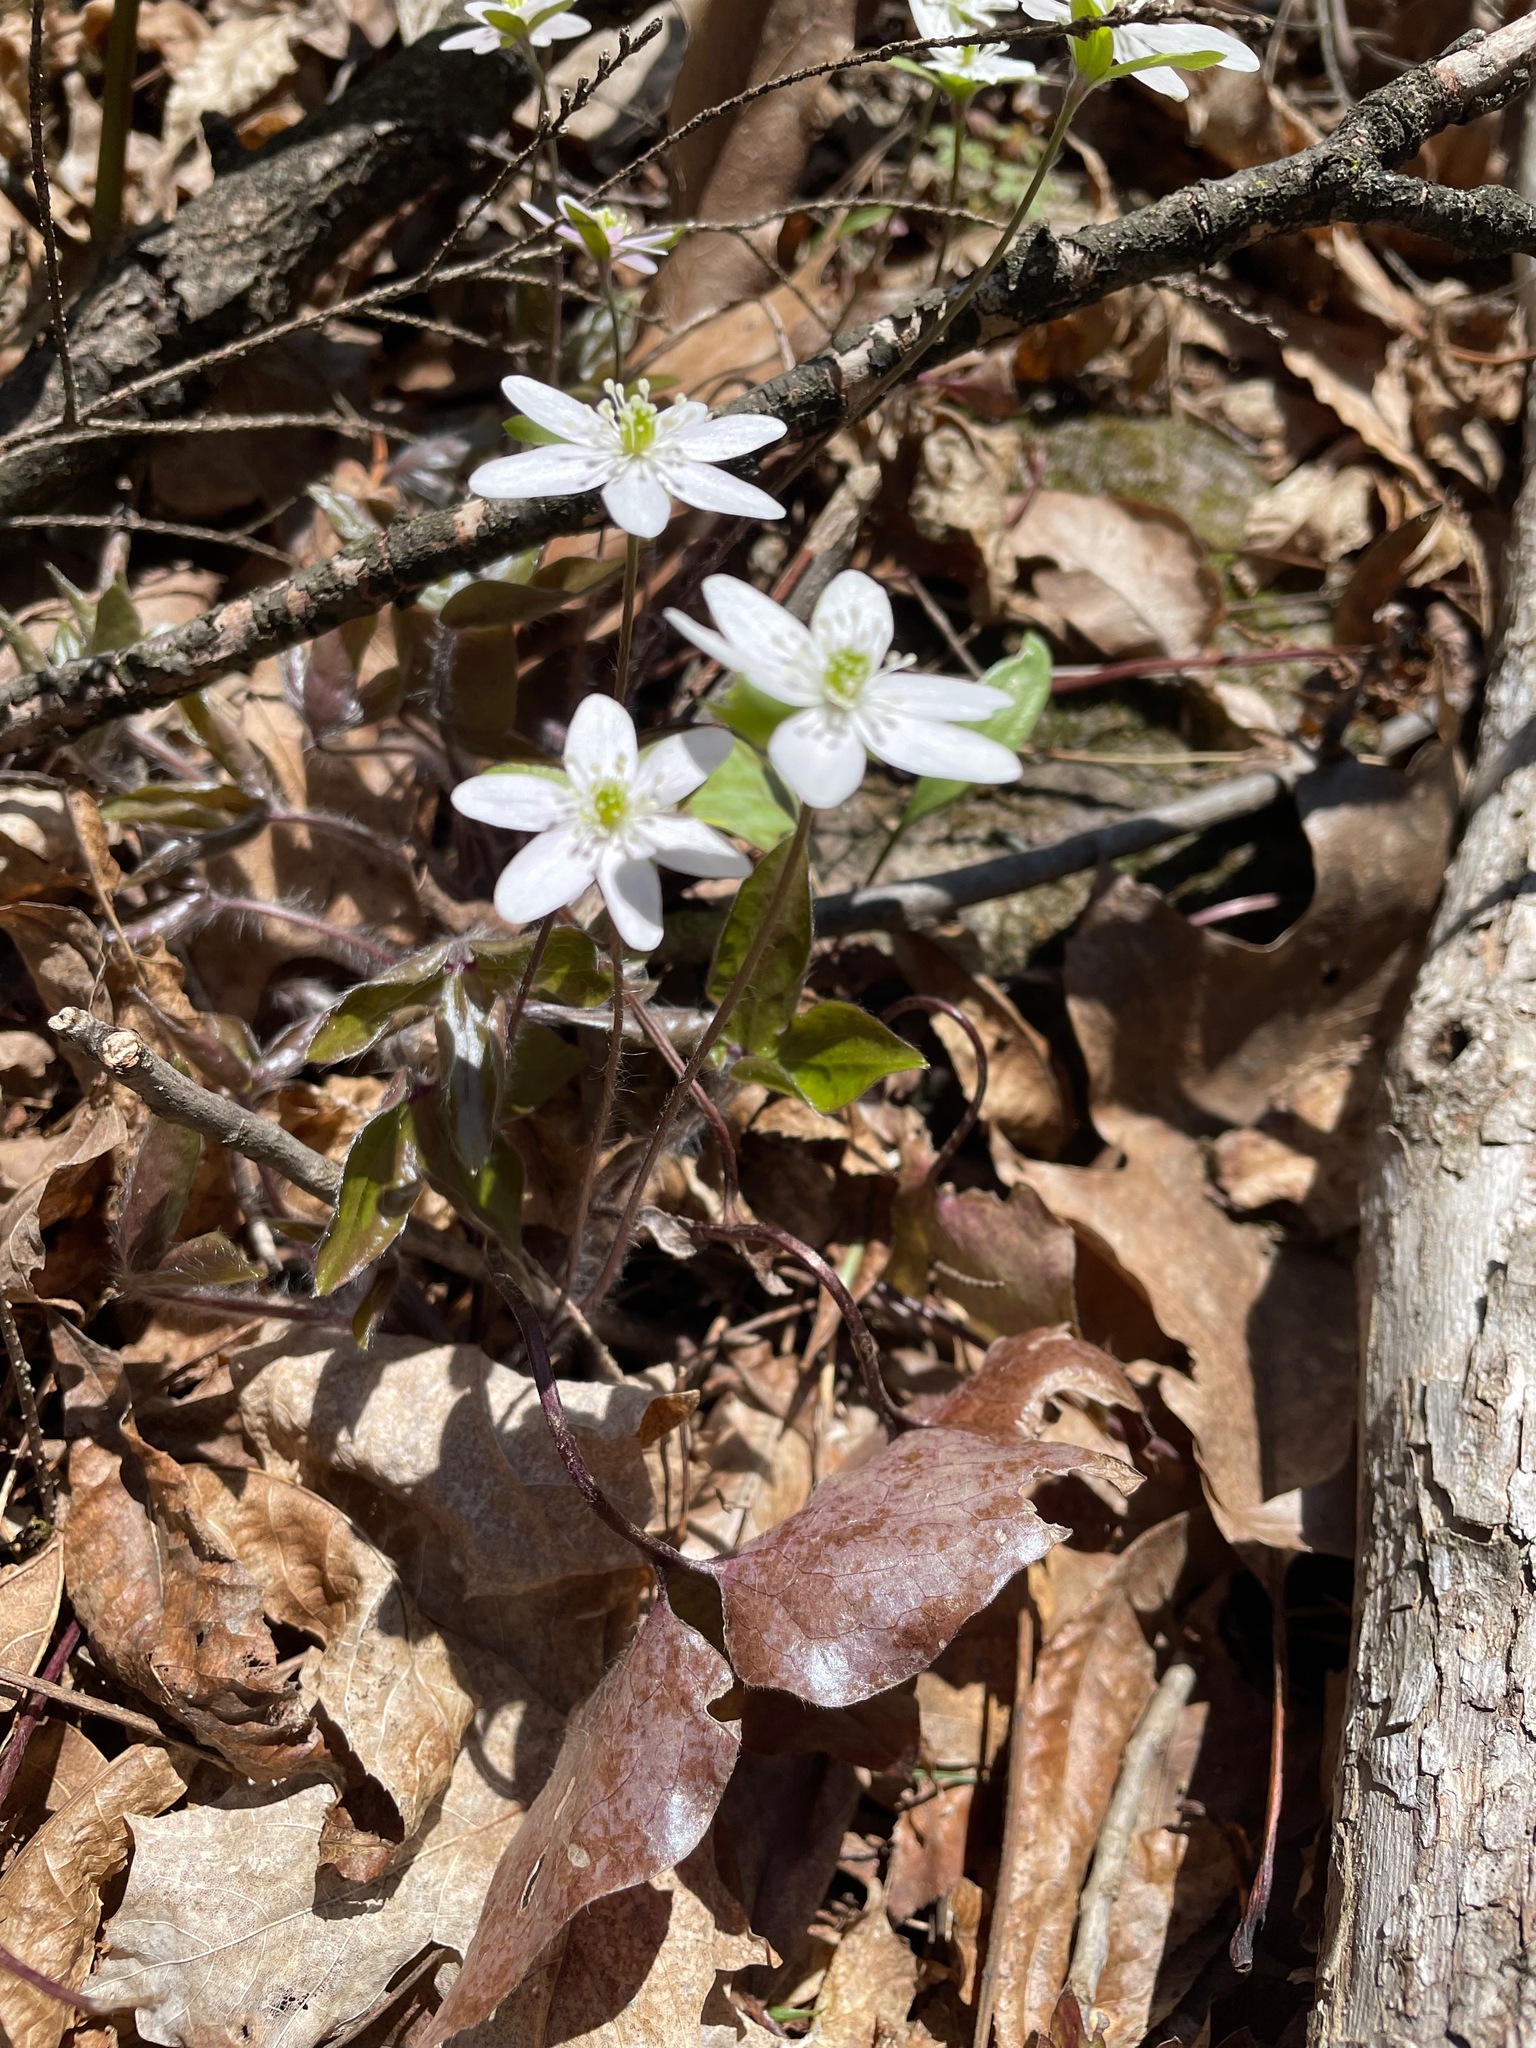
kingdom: Plantae
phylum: Tracheophyta
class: Magnoliopsida
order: Ranunculales
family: Ranunculaceae
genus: Hepatica
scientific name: Hepatica acutiloba
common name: Sharp-lobed hepatica
